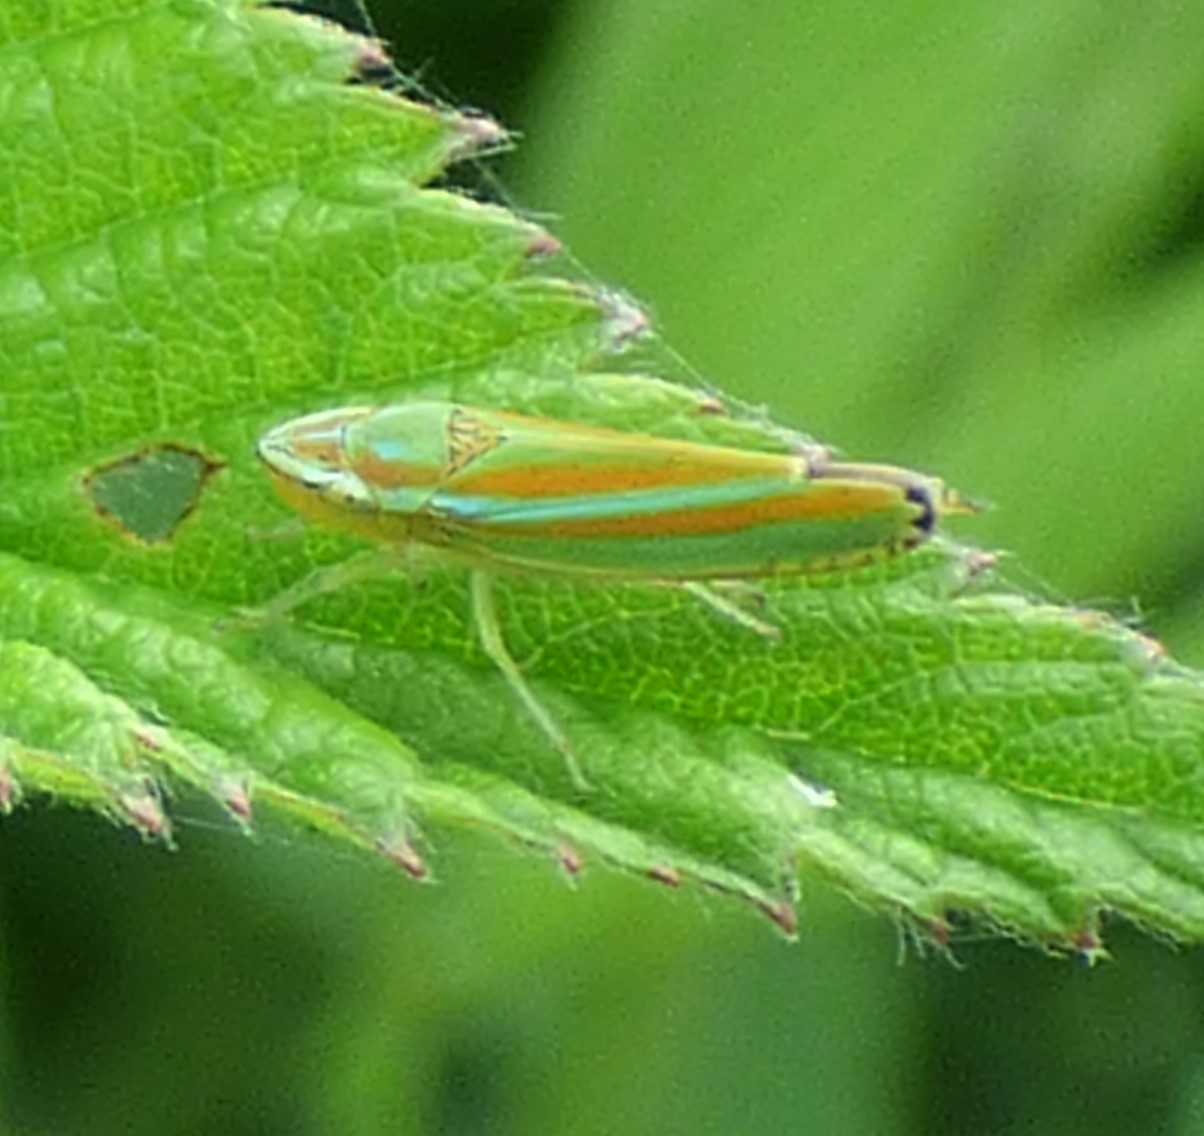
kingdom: Animalia
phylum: Arthropoda
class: Insecta
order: Hemiptera
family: Cicadellidae
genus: Graphocephala
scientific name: Graphocephala versuta
